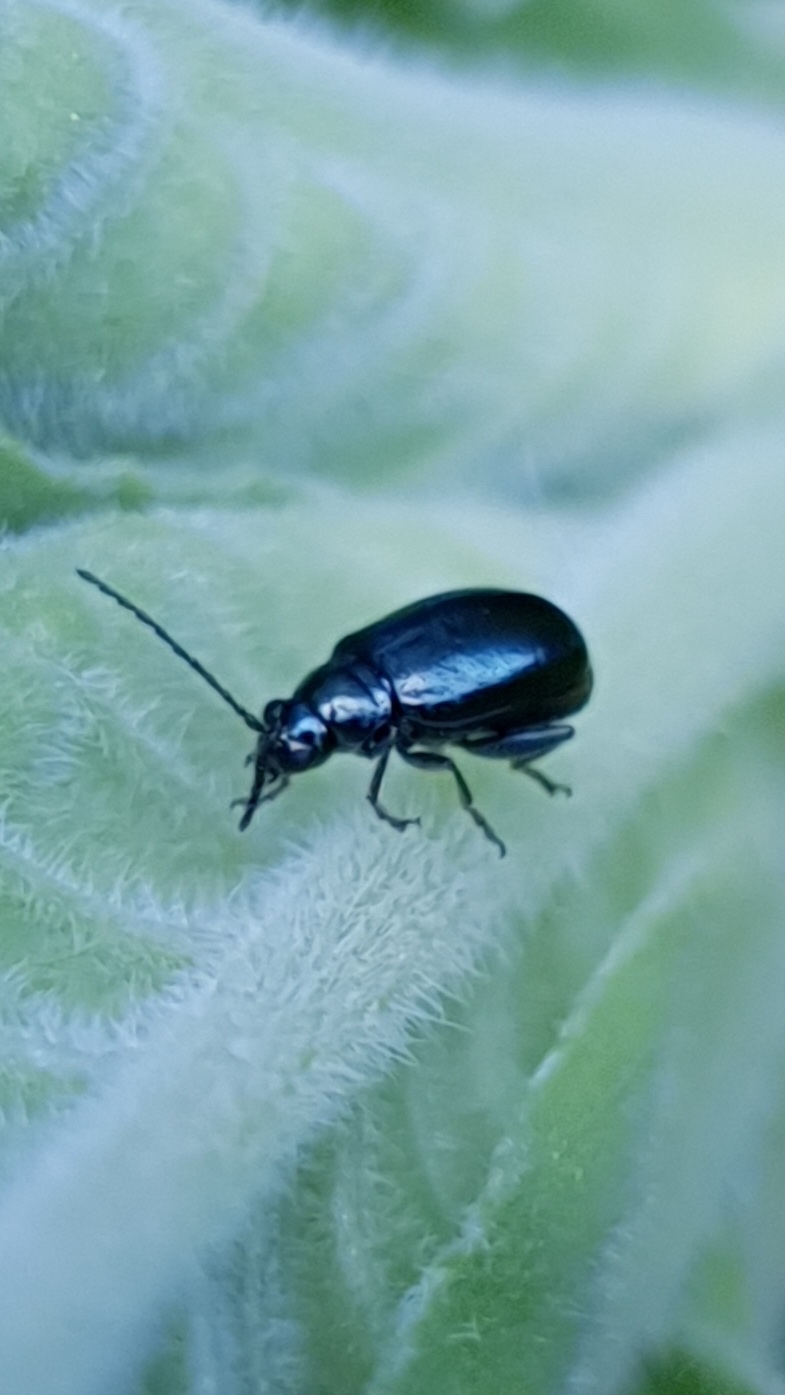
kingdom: Animalia
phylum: Arthropoda
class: Insecta
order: Coleoptera
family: Chrysomelidae
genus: Agelastica
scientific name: Agelastica alni
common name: Alder leaf beetle
